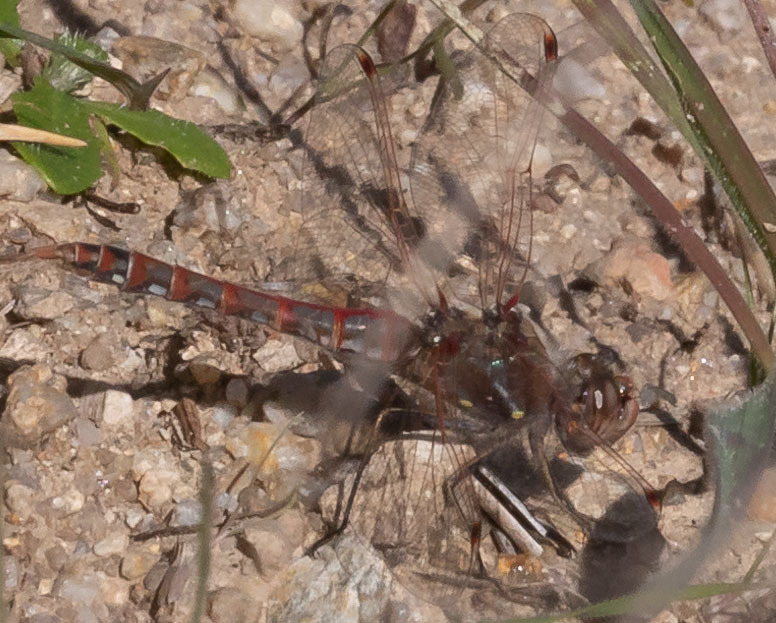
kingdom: Animalia
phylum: Arthropoda
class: Insecta
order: Odonata
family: Libellulidae
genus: Sympetrum
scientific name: Sympetrum corruptum
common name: Variegated meadowhawk
